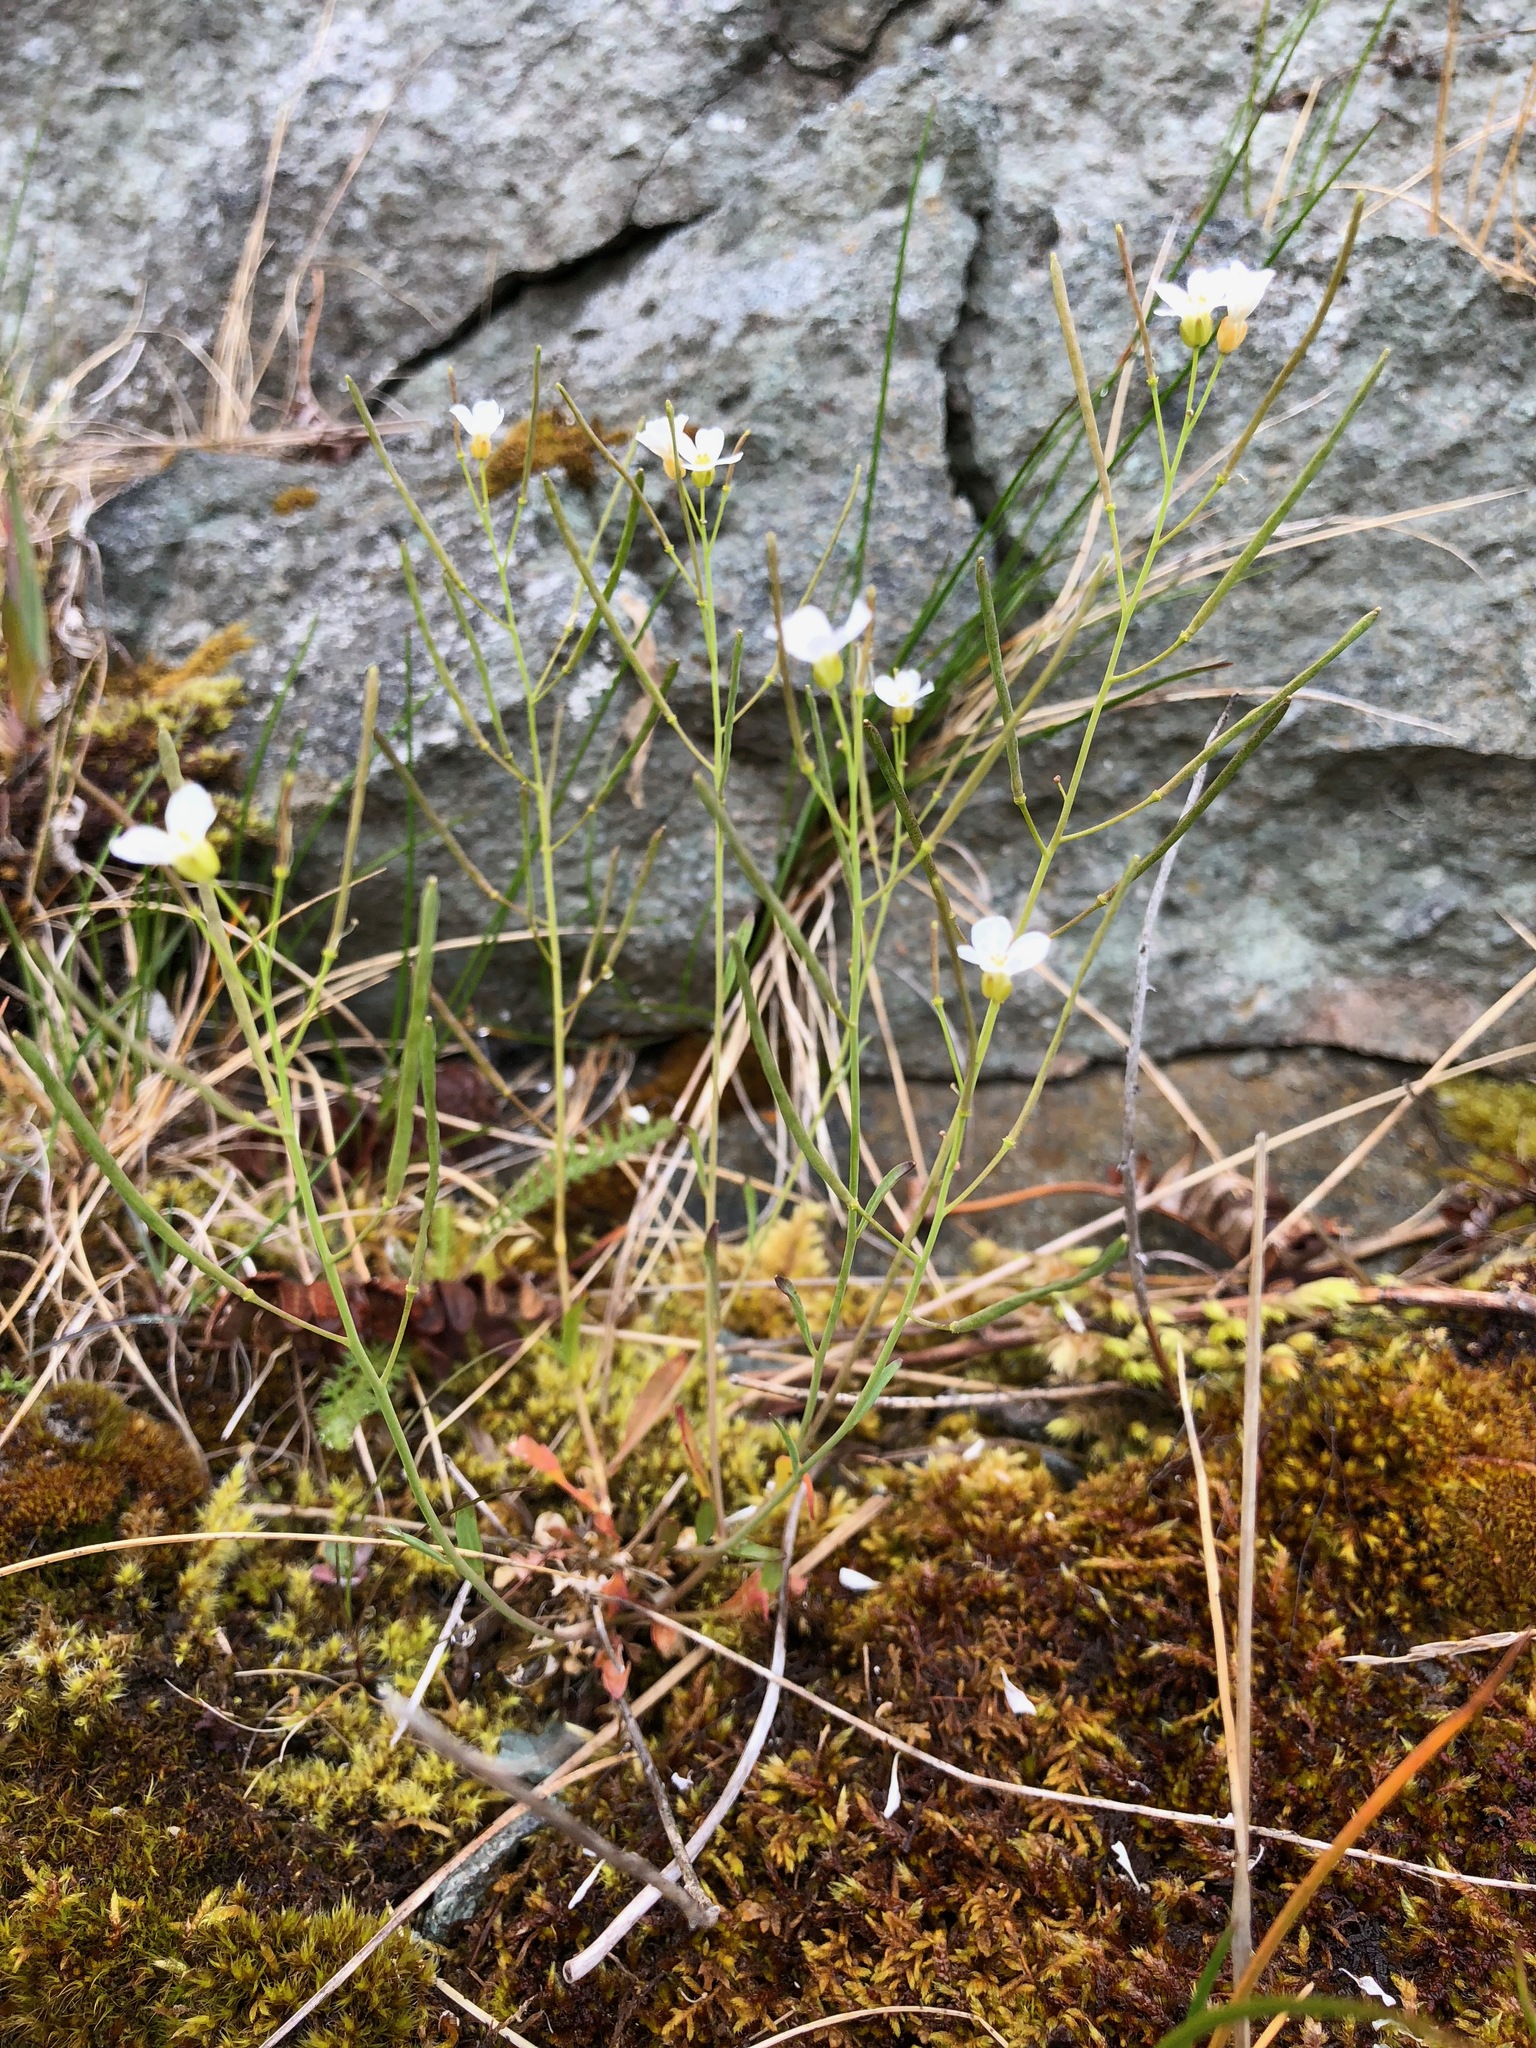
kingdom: Plantae
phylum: Tracheophyta
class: Magnoliopsida
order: Brassicales
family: Brassicaceae
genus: Arabidopsis
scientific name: Arabidopsis lyrata
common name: Lyrate rockcress
